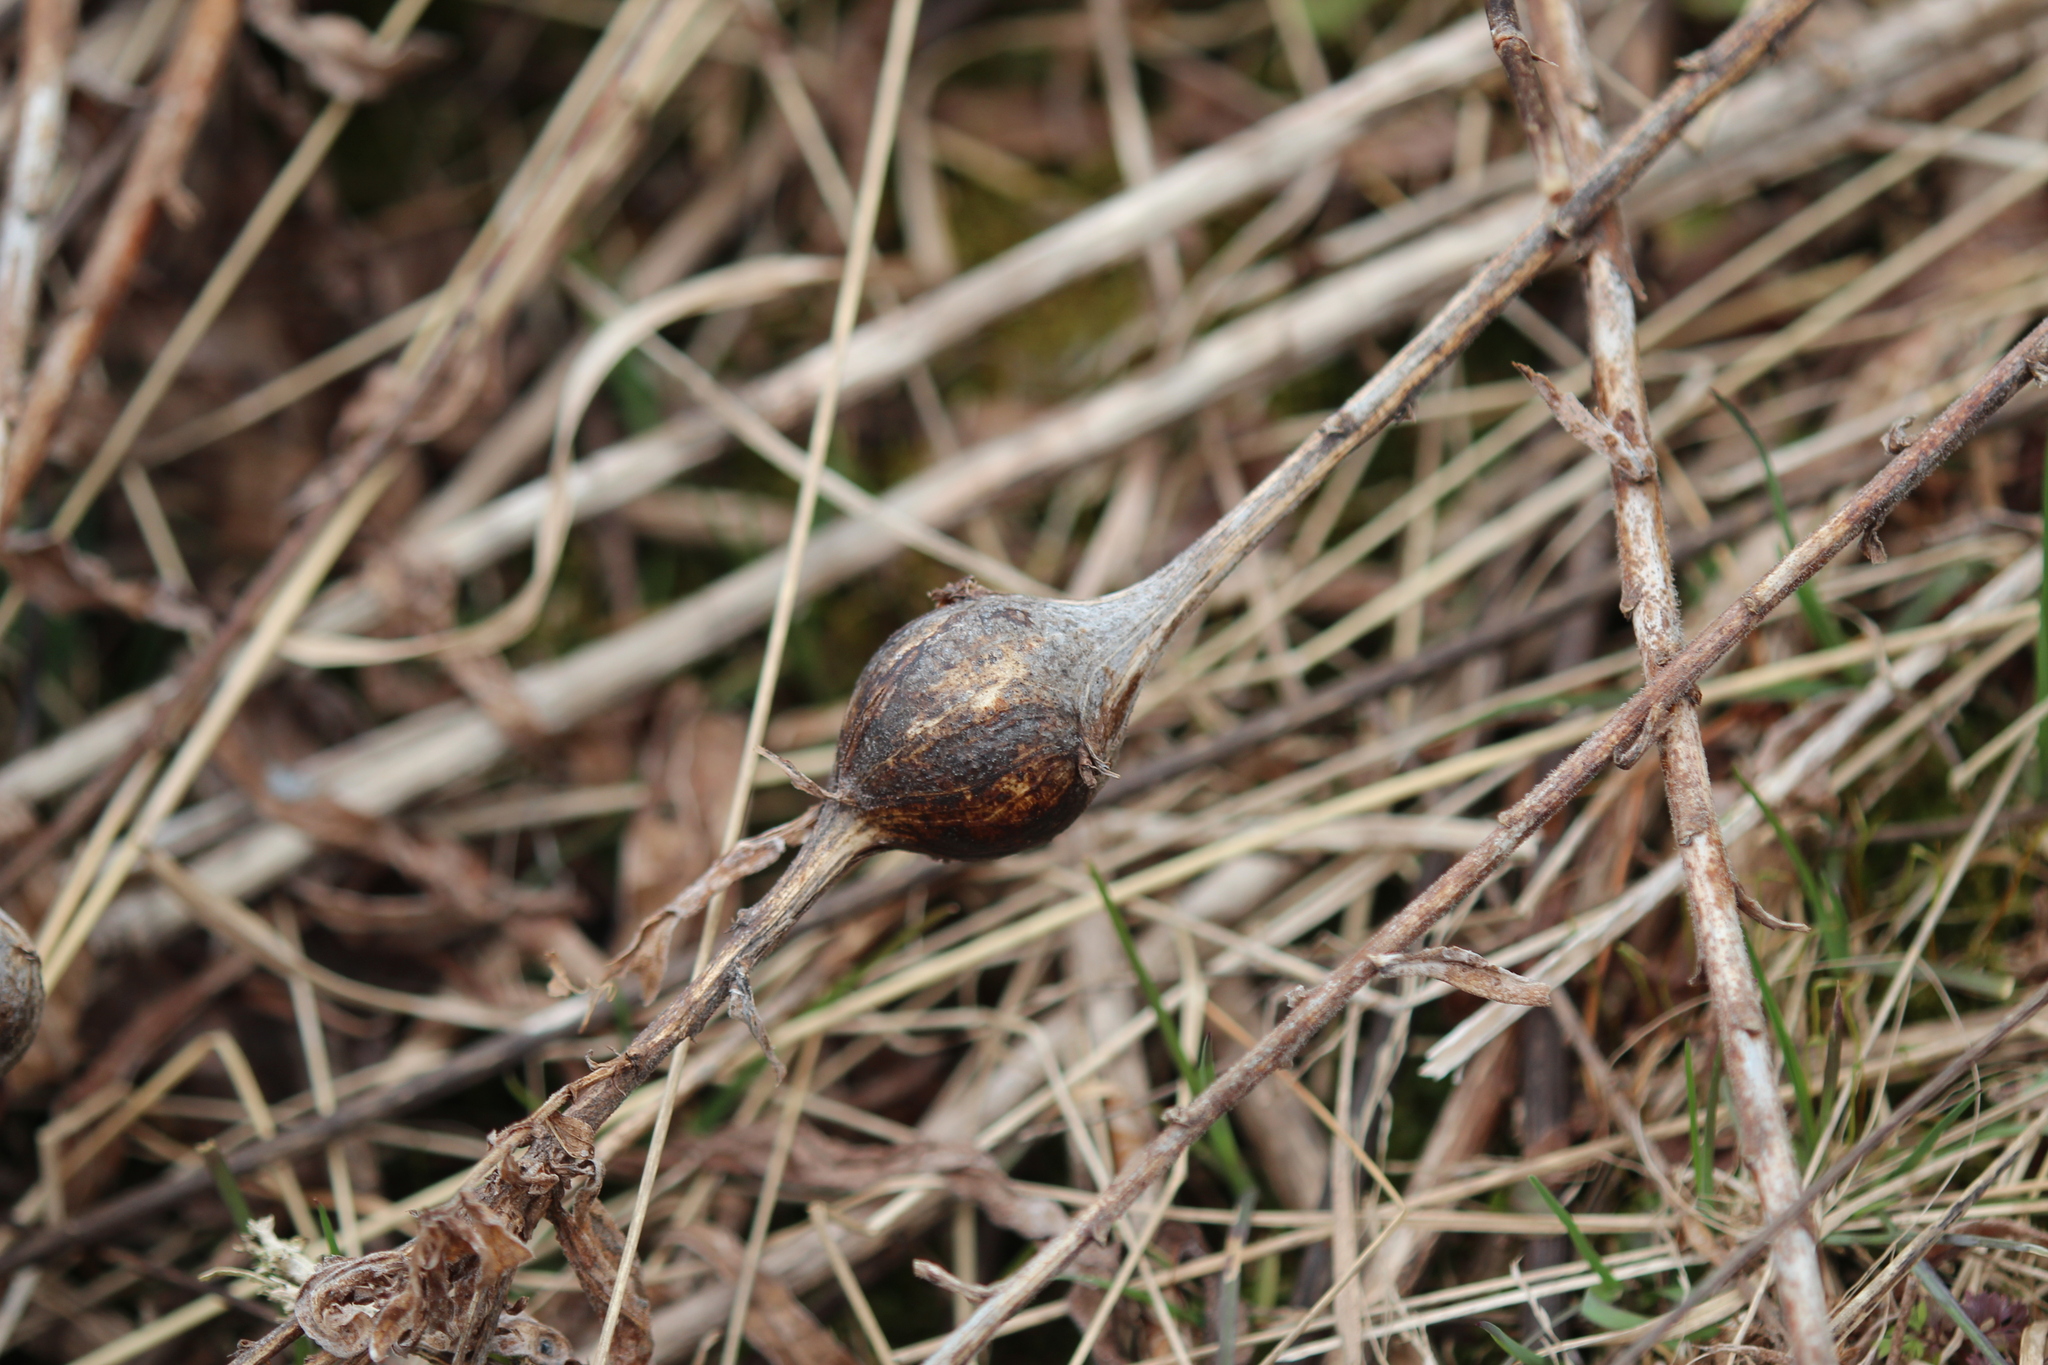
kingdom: Animalia
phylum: Arthropoda
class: Insecta
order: Diptera
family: Tephritidae
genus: Eurosta
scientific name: Eurosta solidaginis
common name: Goldenrod gall fly
